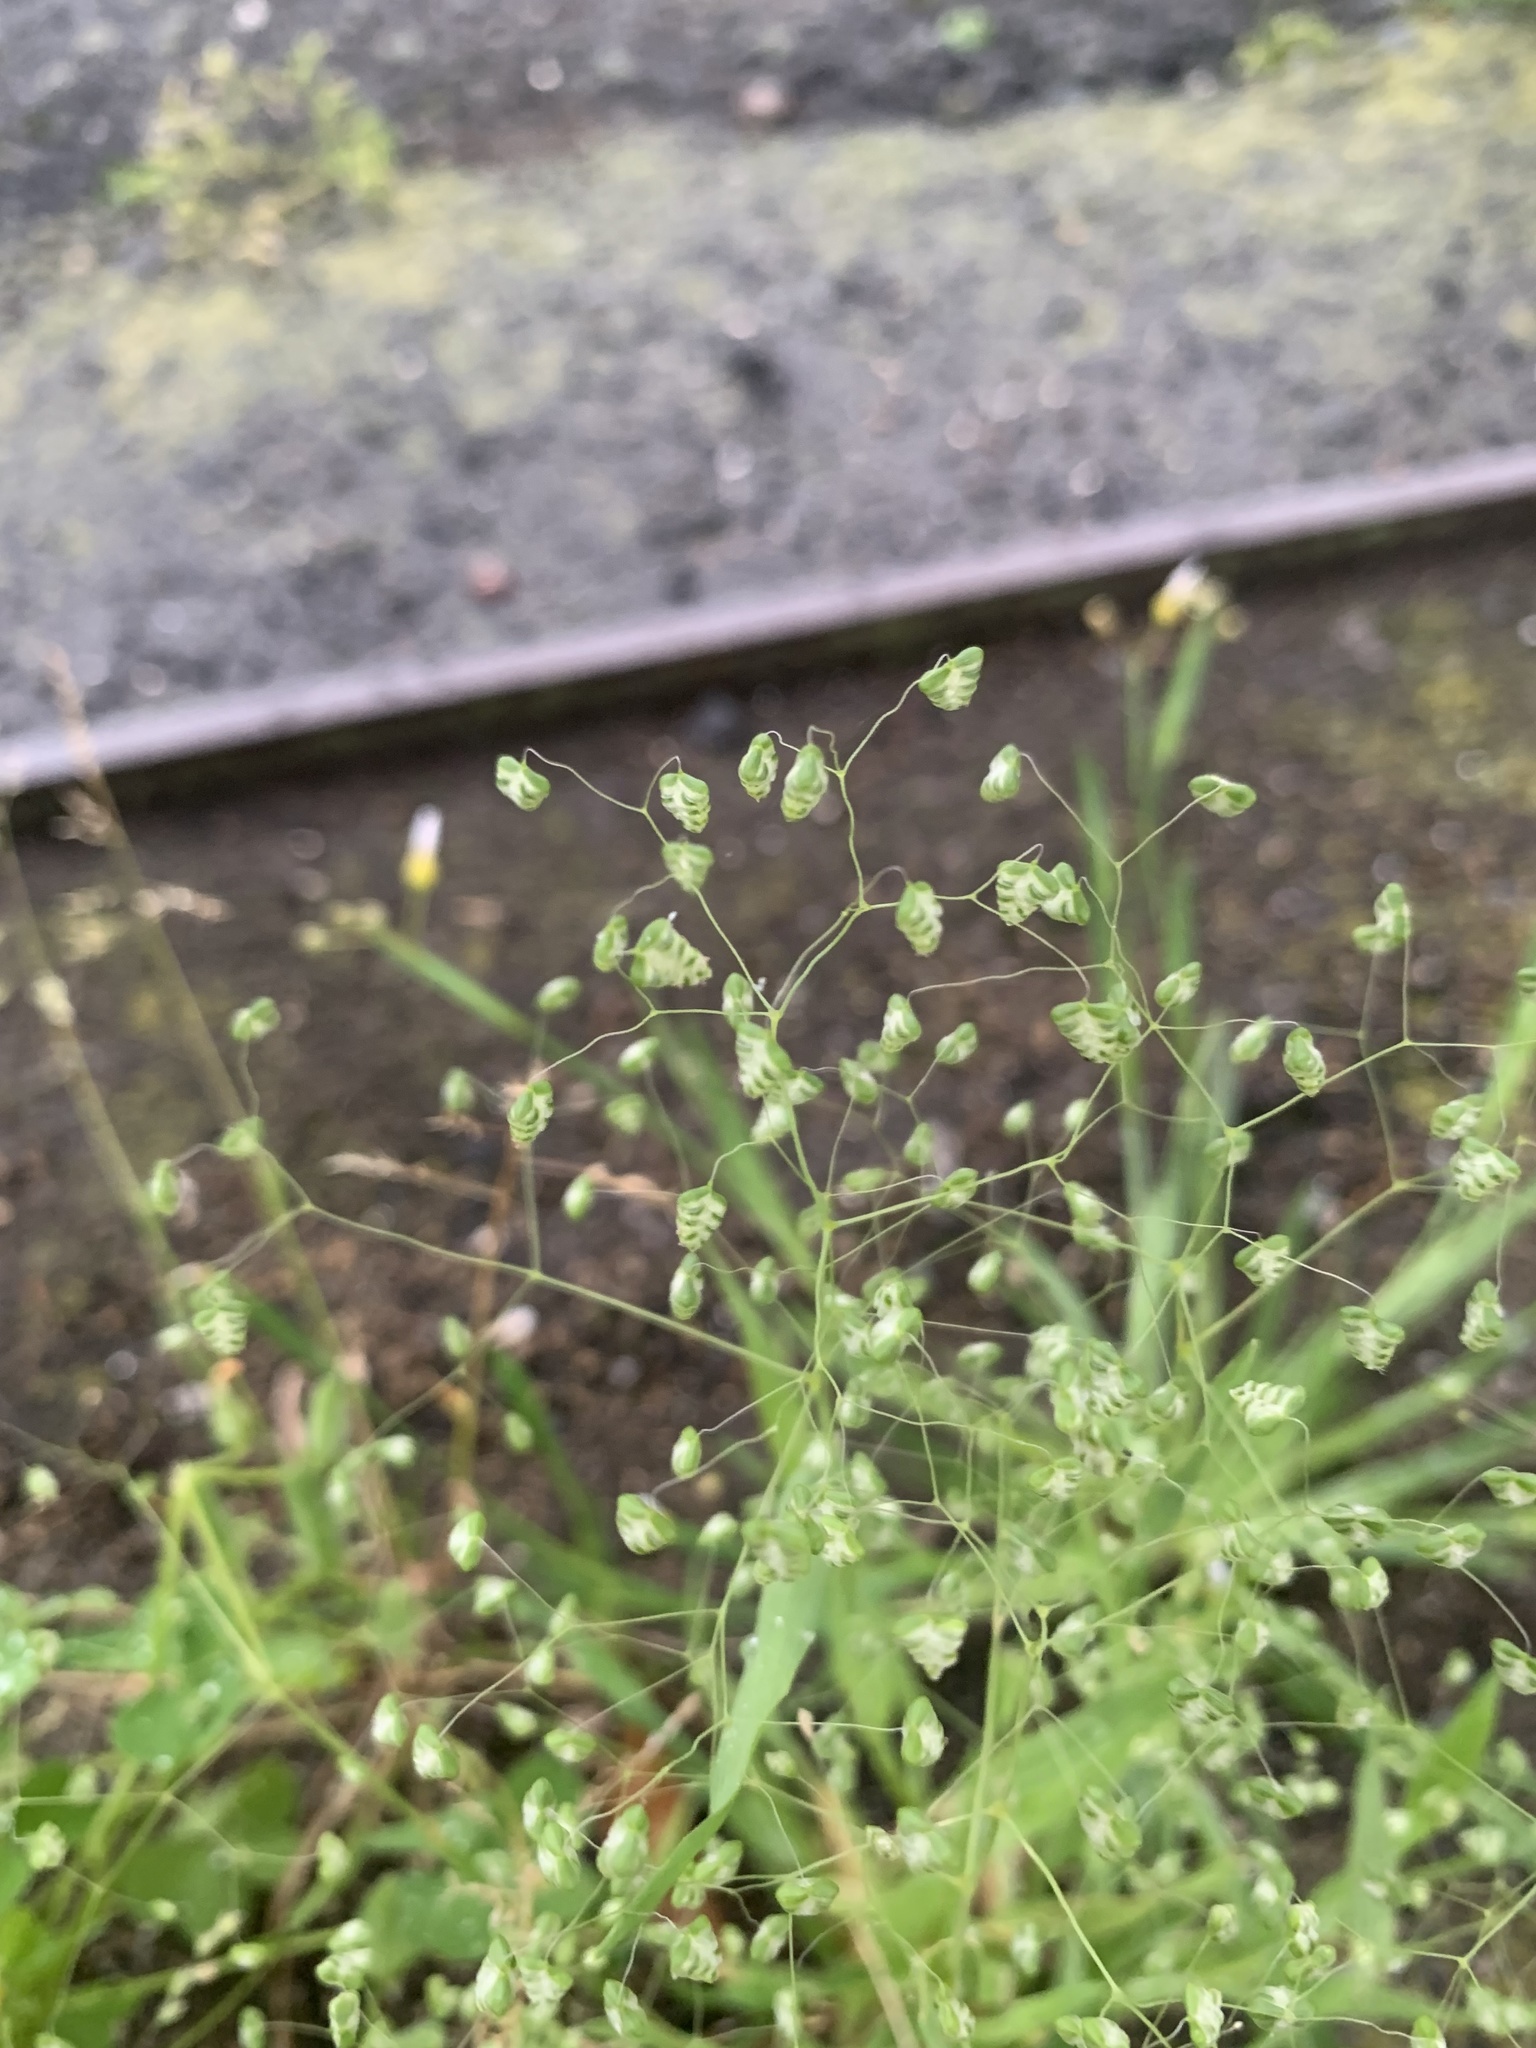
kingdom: Plantae
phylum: Tracheophyta
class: Liliopsida
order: Poales
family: Poaceae
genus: Briza
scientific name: Briza minor
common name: Lesser quaking-grass
